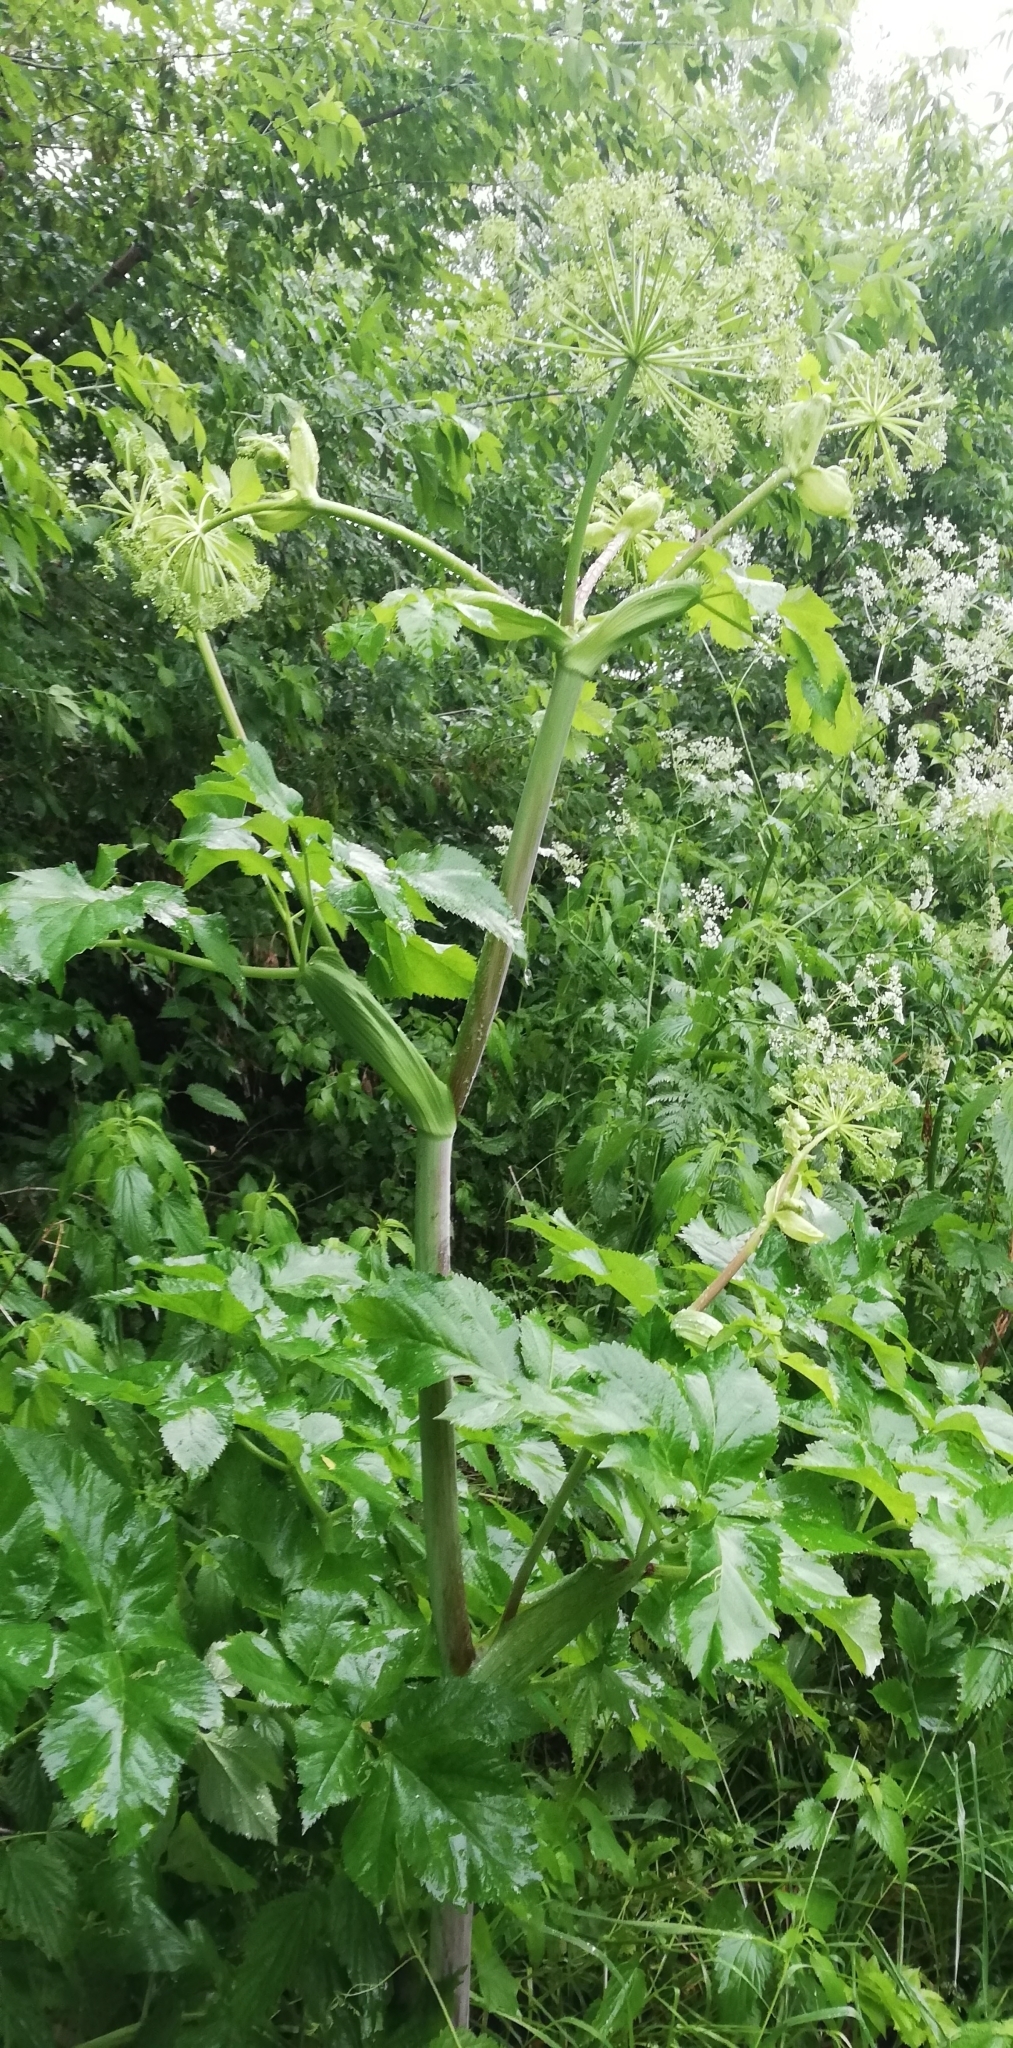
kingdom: Plantae
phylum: Tracheophyta
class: Magnoliopsida
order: Apiales
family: Apiaceae
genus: Angelica
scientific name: Angelica archangelica
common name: Garden angelica
